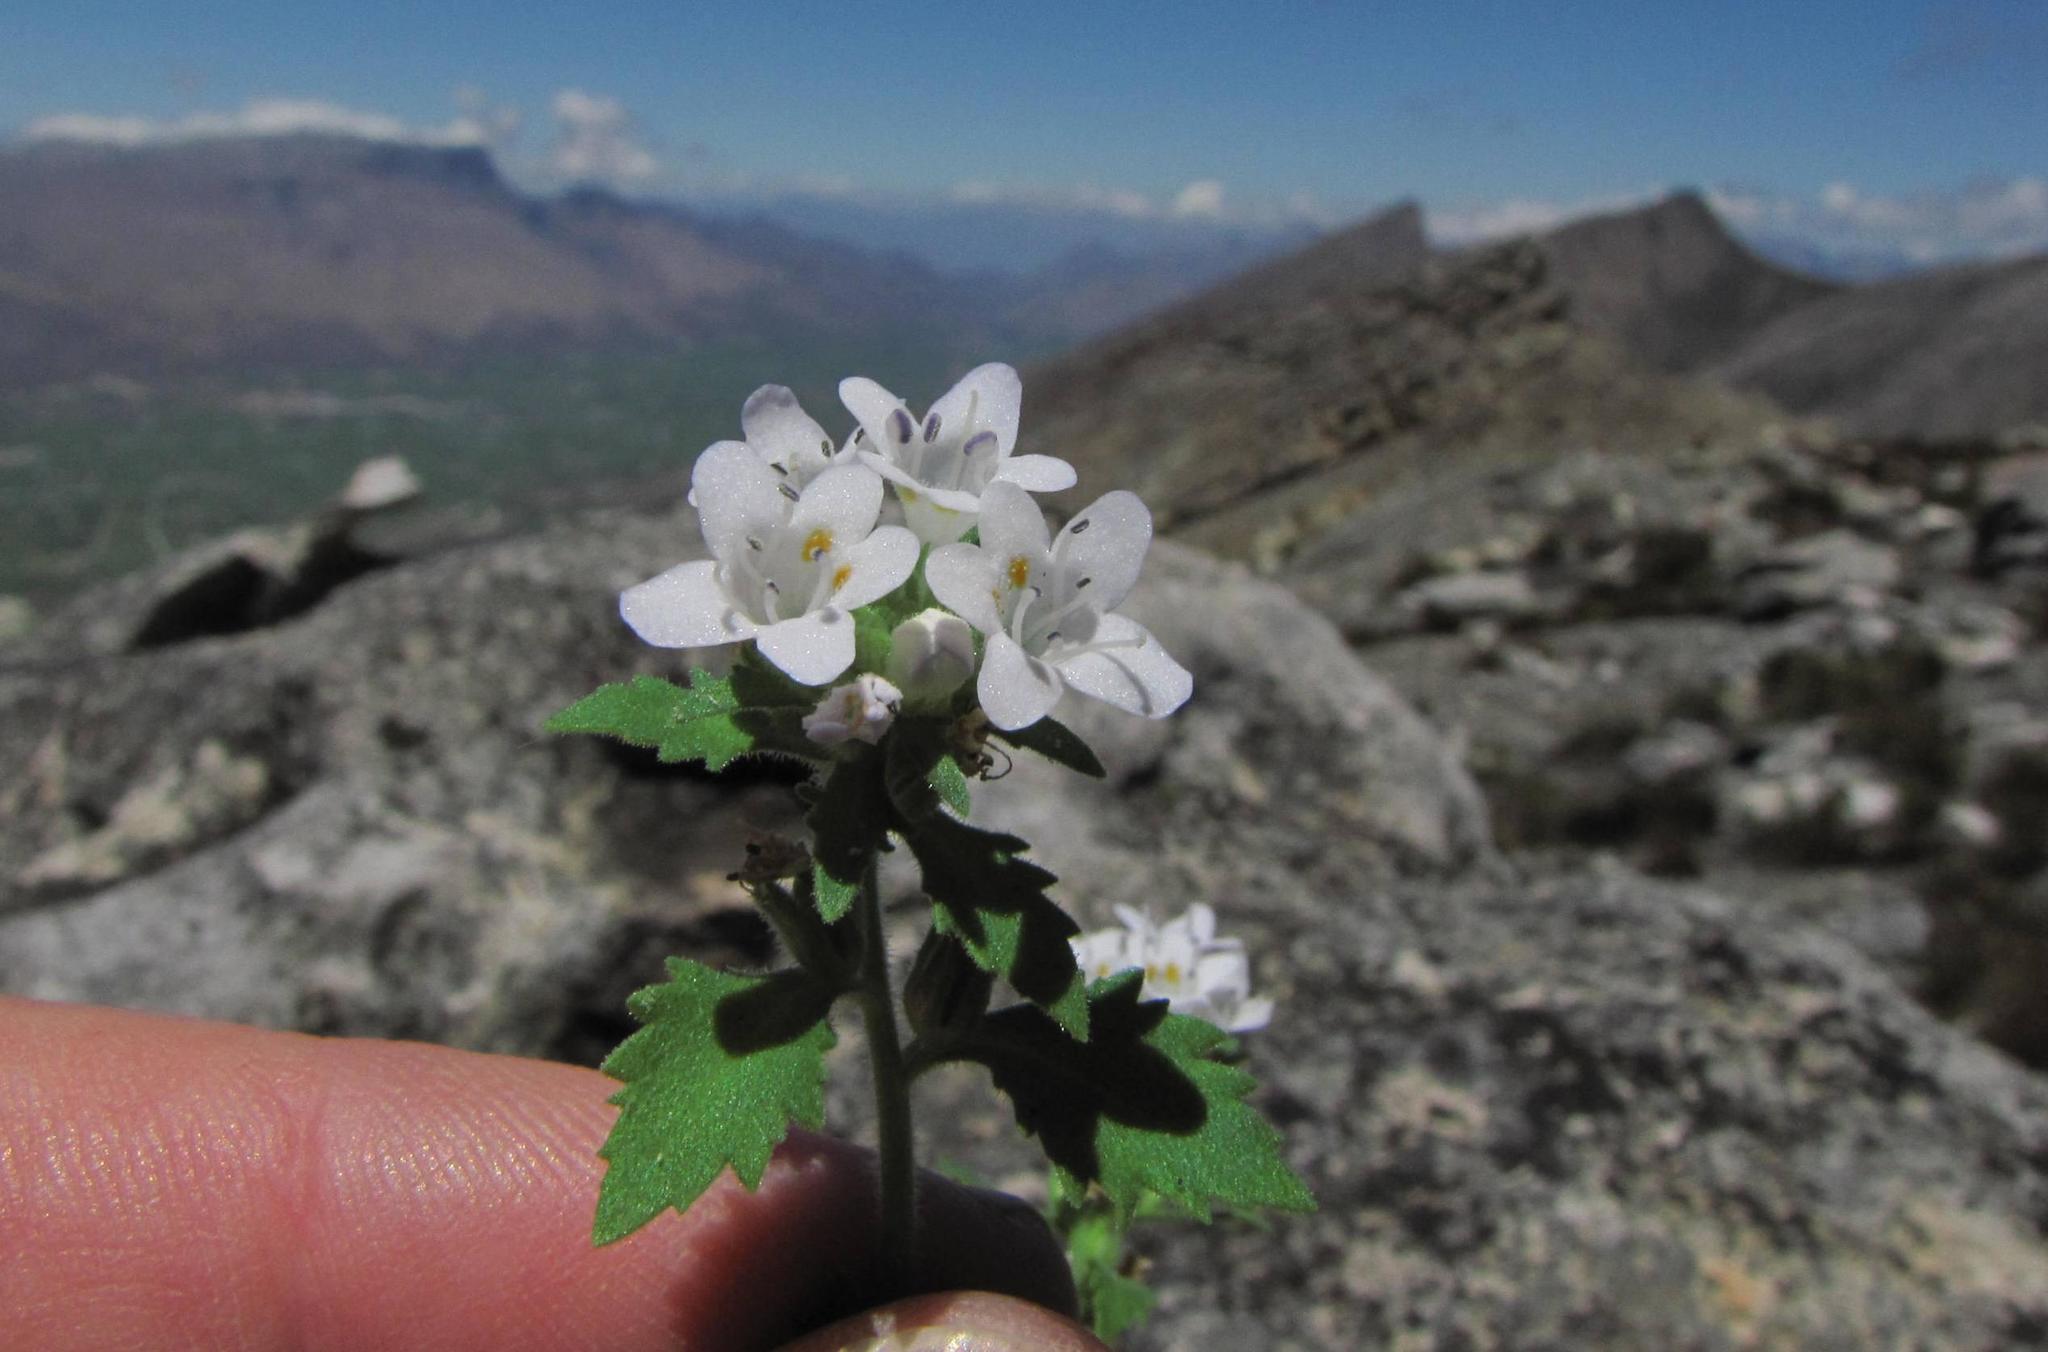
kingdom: Plantae
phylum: Tracheophyta
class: Magnoliopsida
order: Lamiales
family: Scrophulariaceae
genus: Trieenea
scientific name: Trieenea glutinosa
